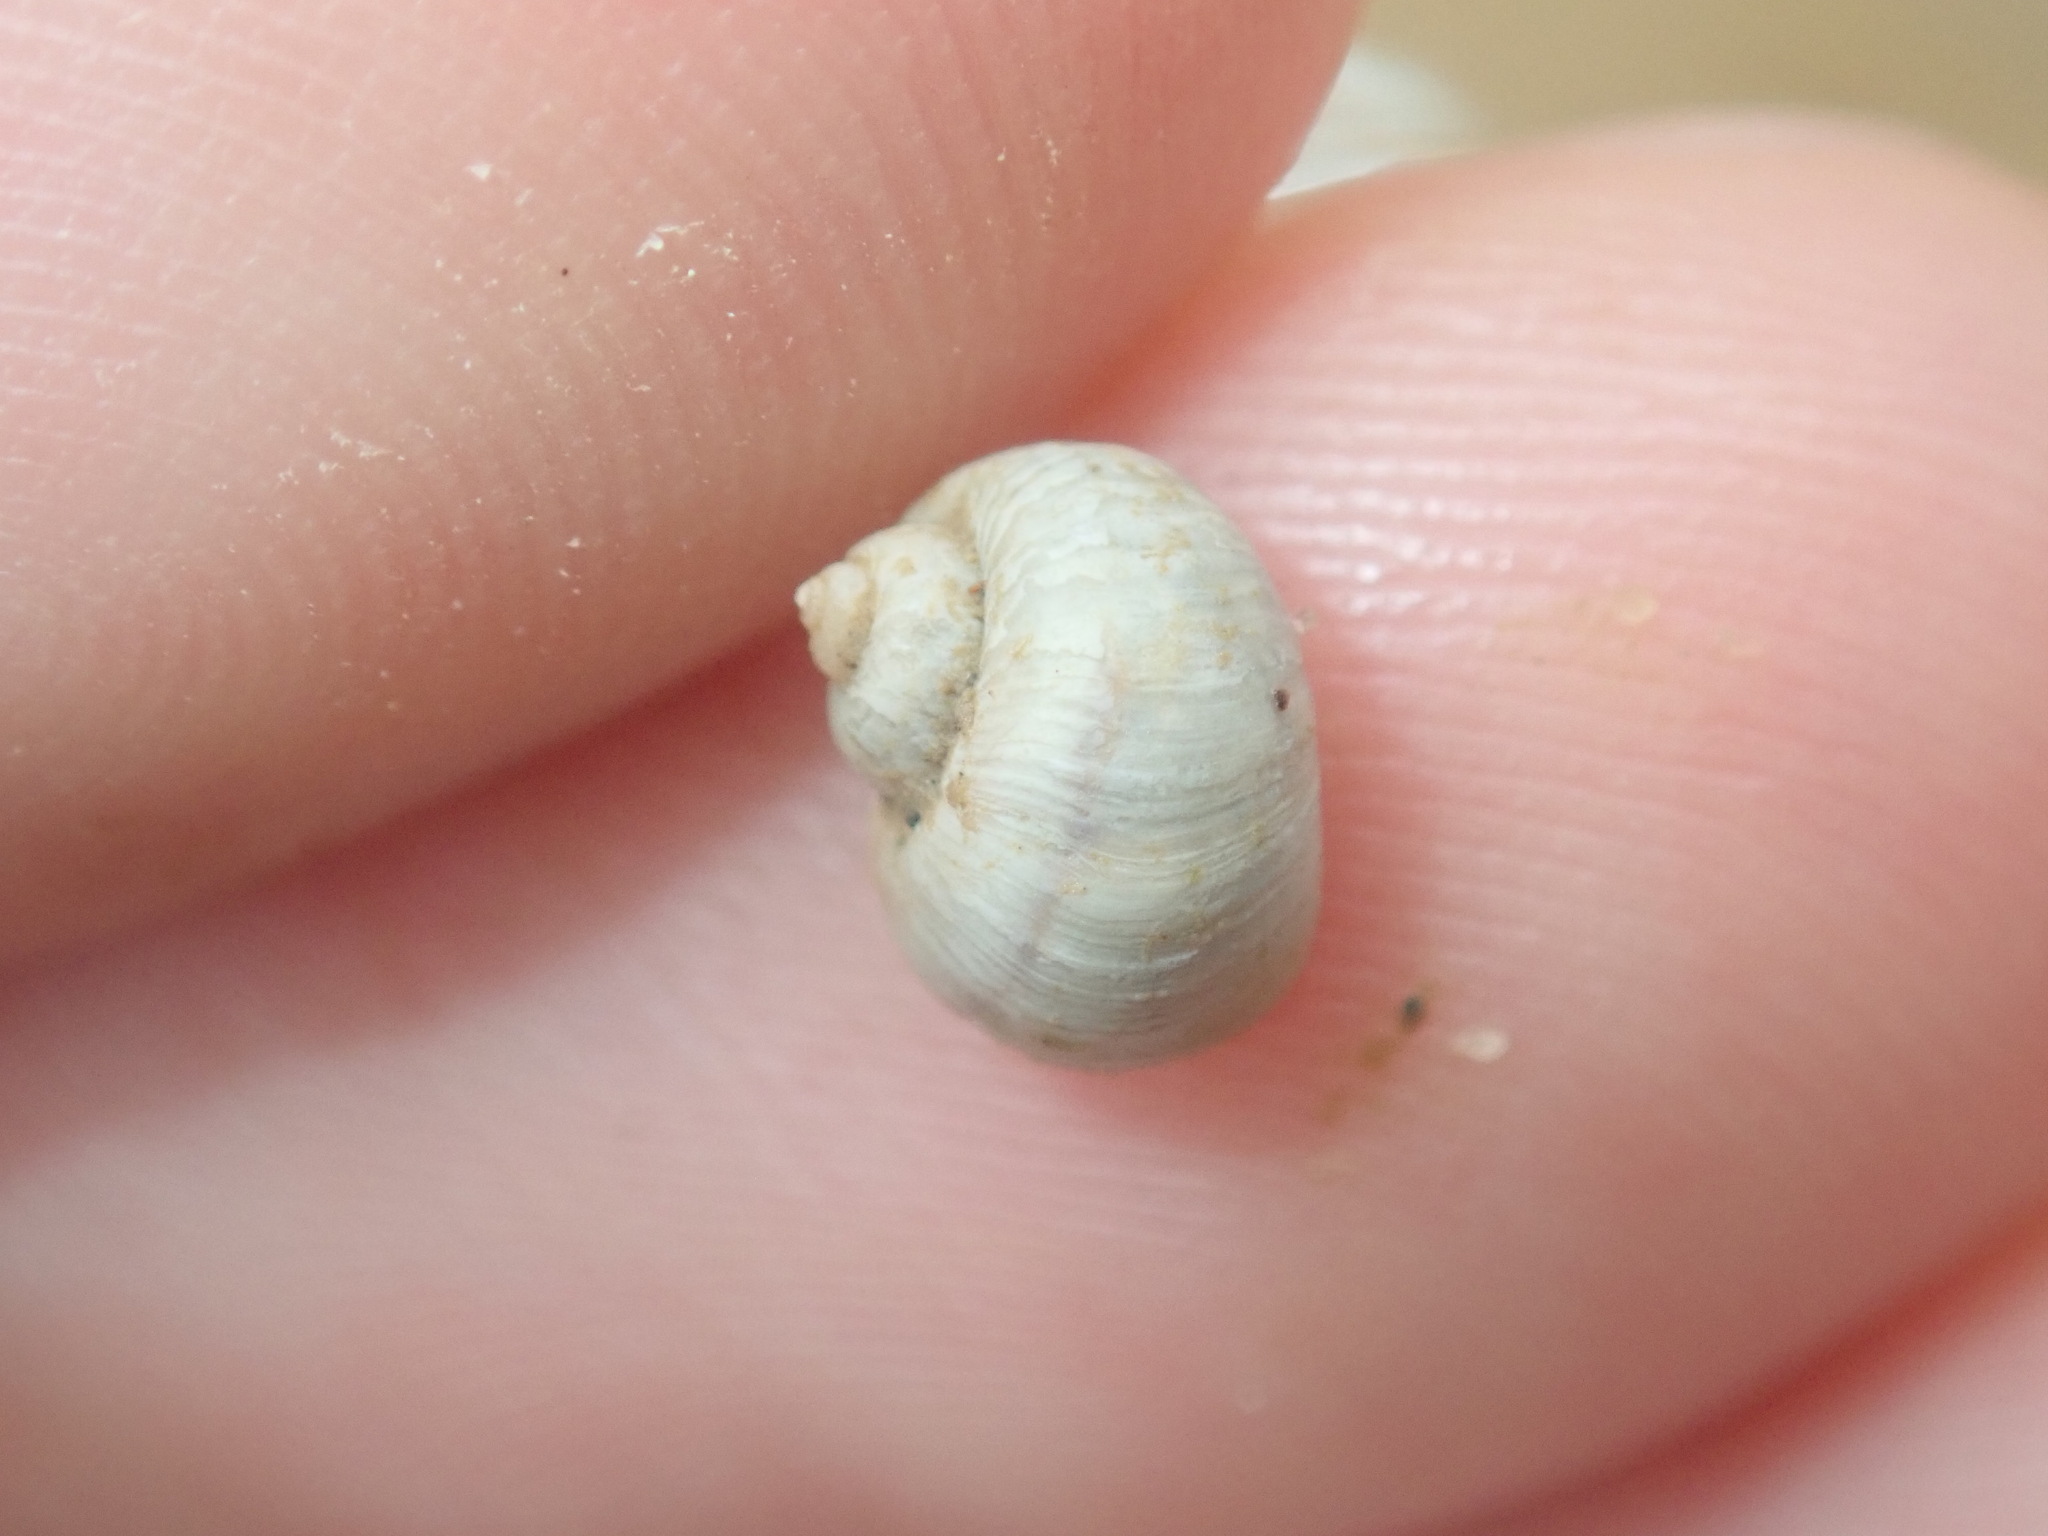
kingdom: Animalia
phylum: Mollusca
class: Gastropoda
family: Amphibolidae
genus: Salinator
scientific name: Salinator tectus
